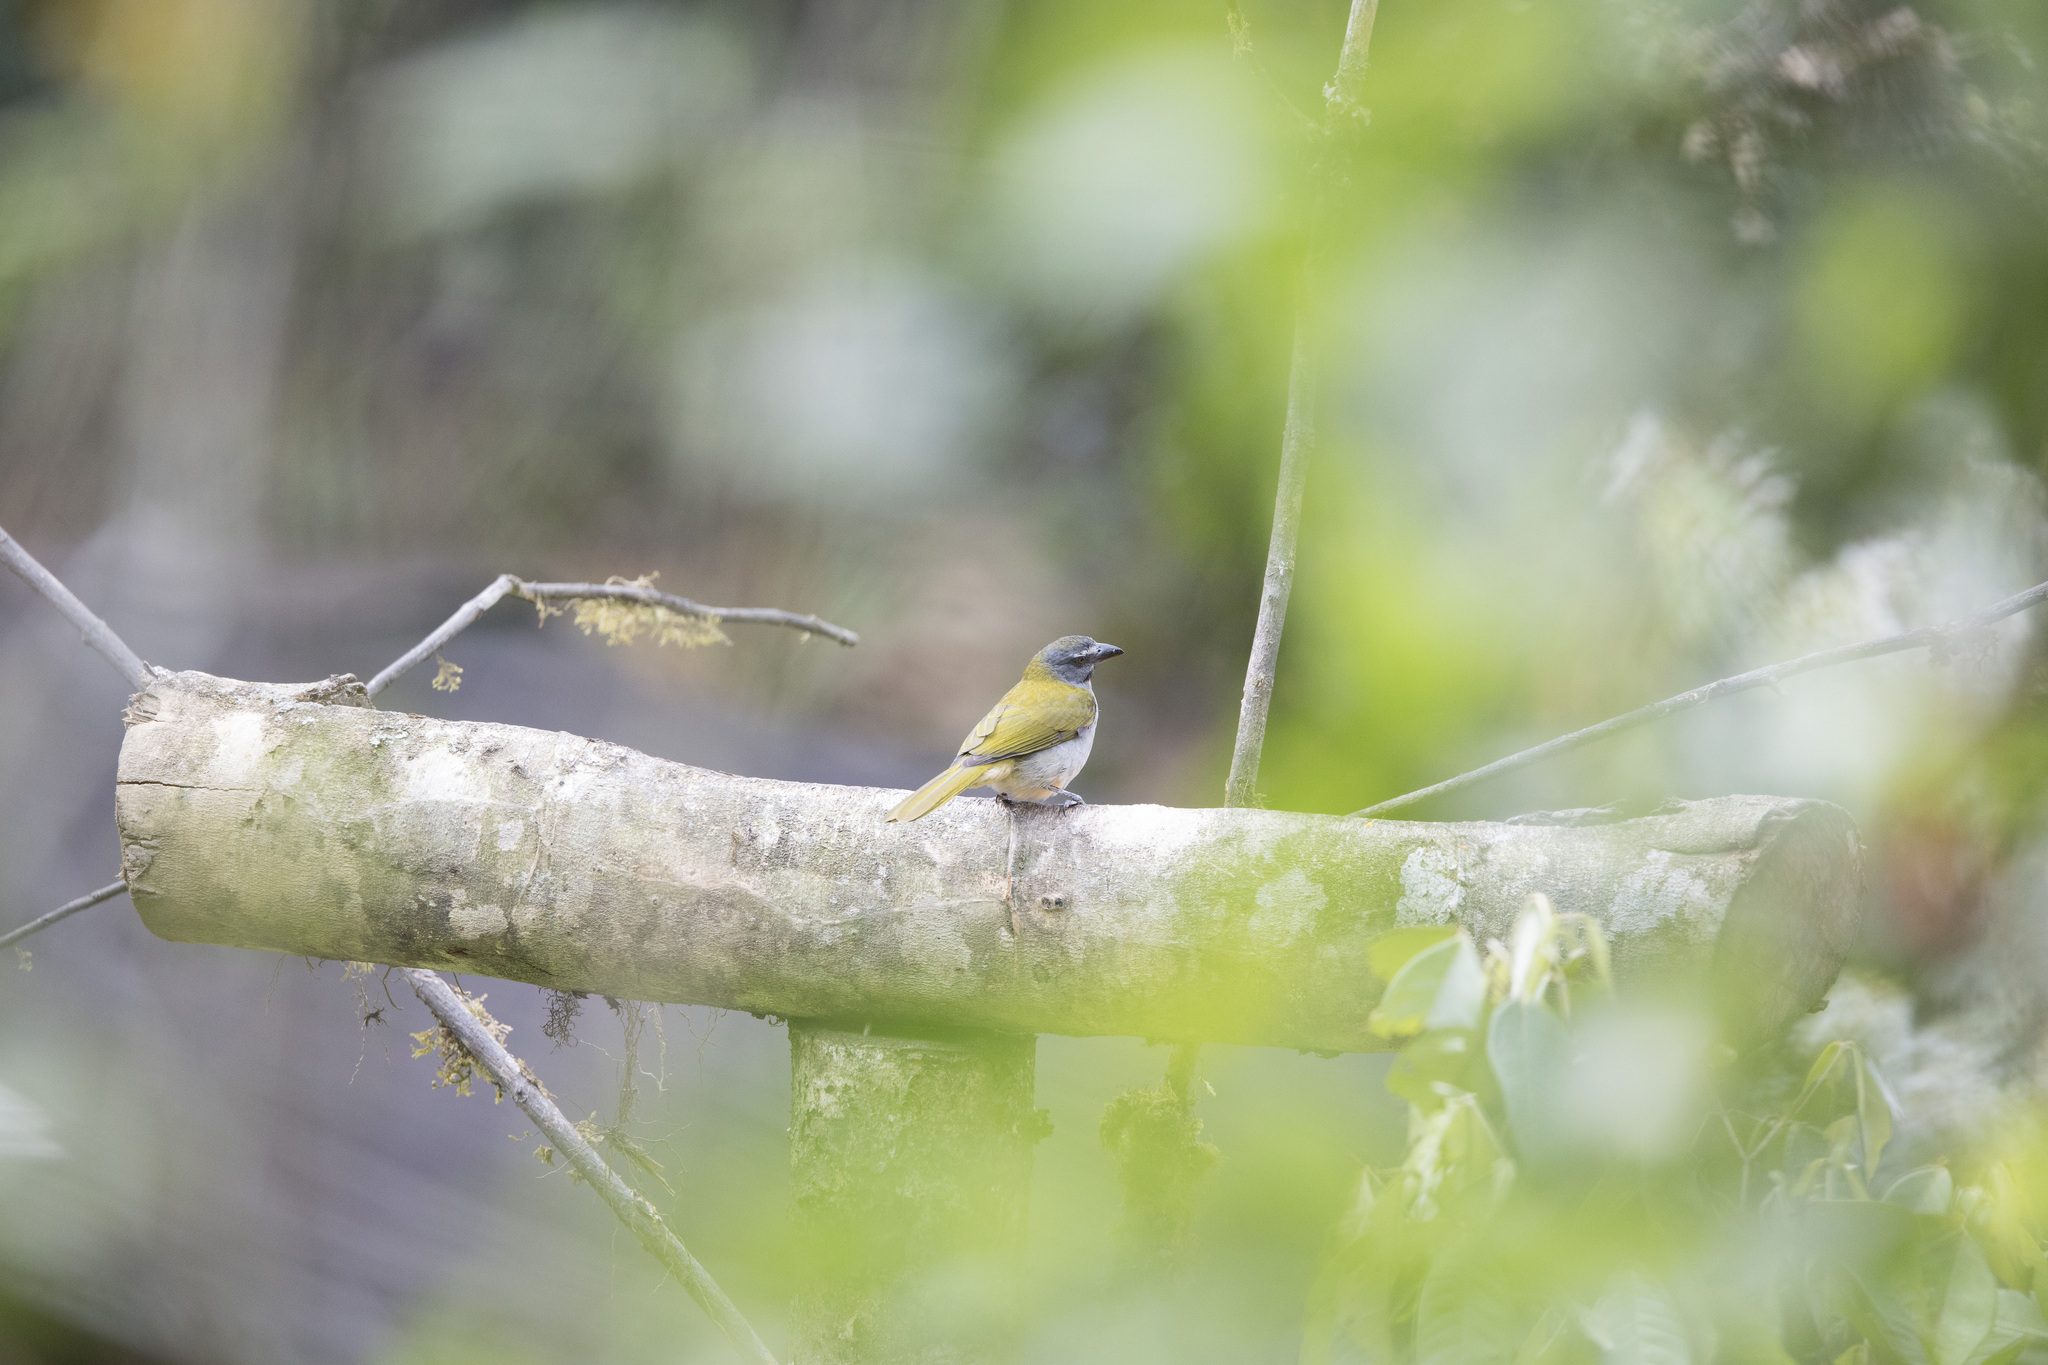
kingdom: Animalia
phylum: Chordata
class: Aves
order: Passeriformes
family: Thraupidae
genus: Saltator
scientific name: Saltator maximus
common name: Buff-throated saltator
